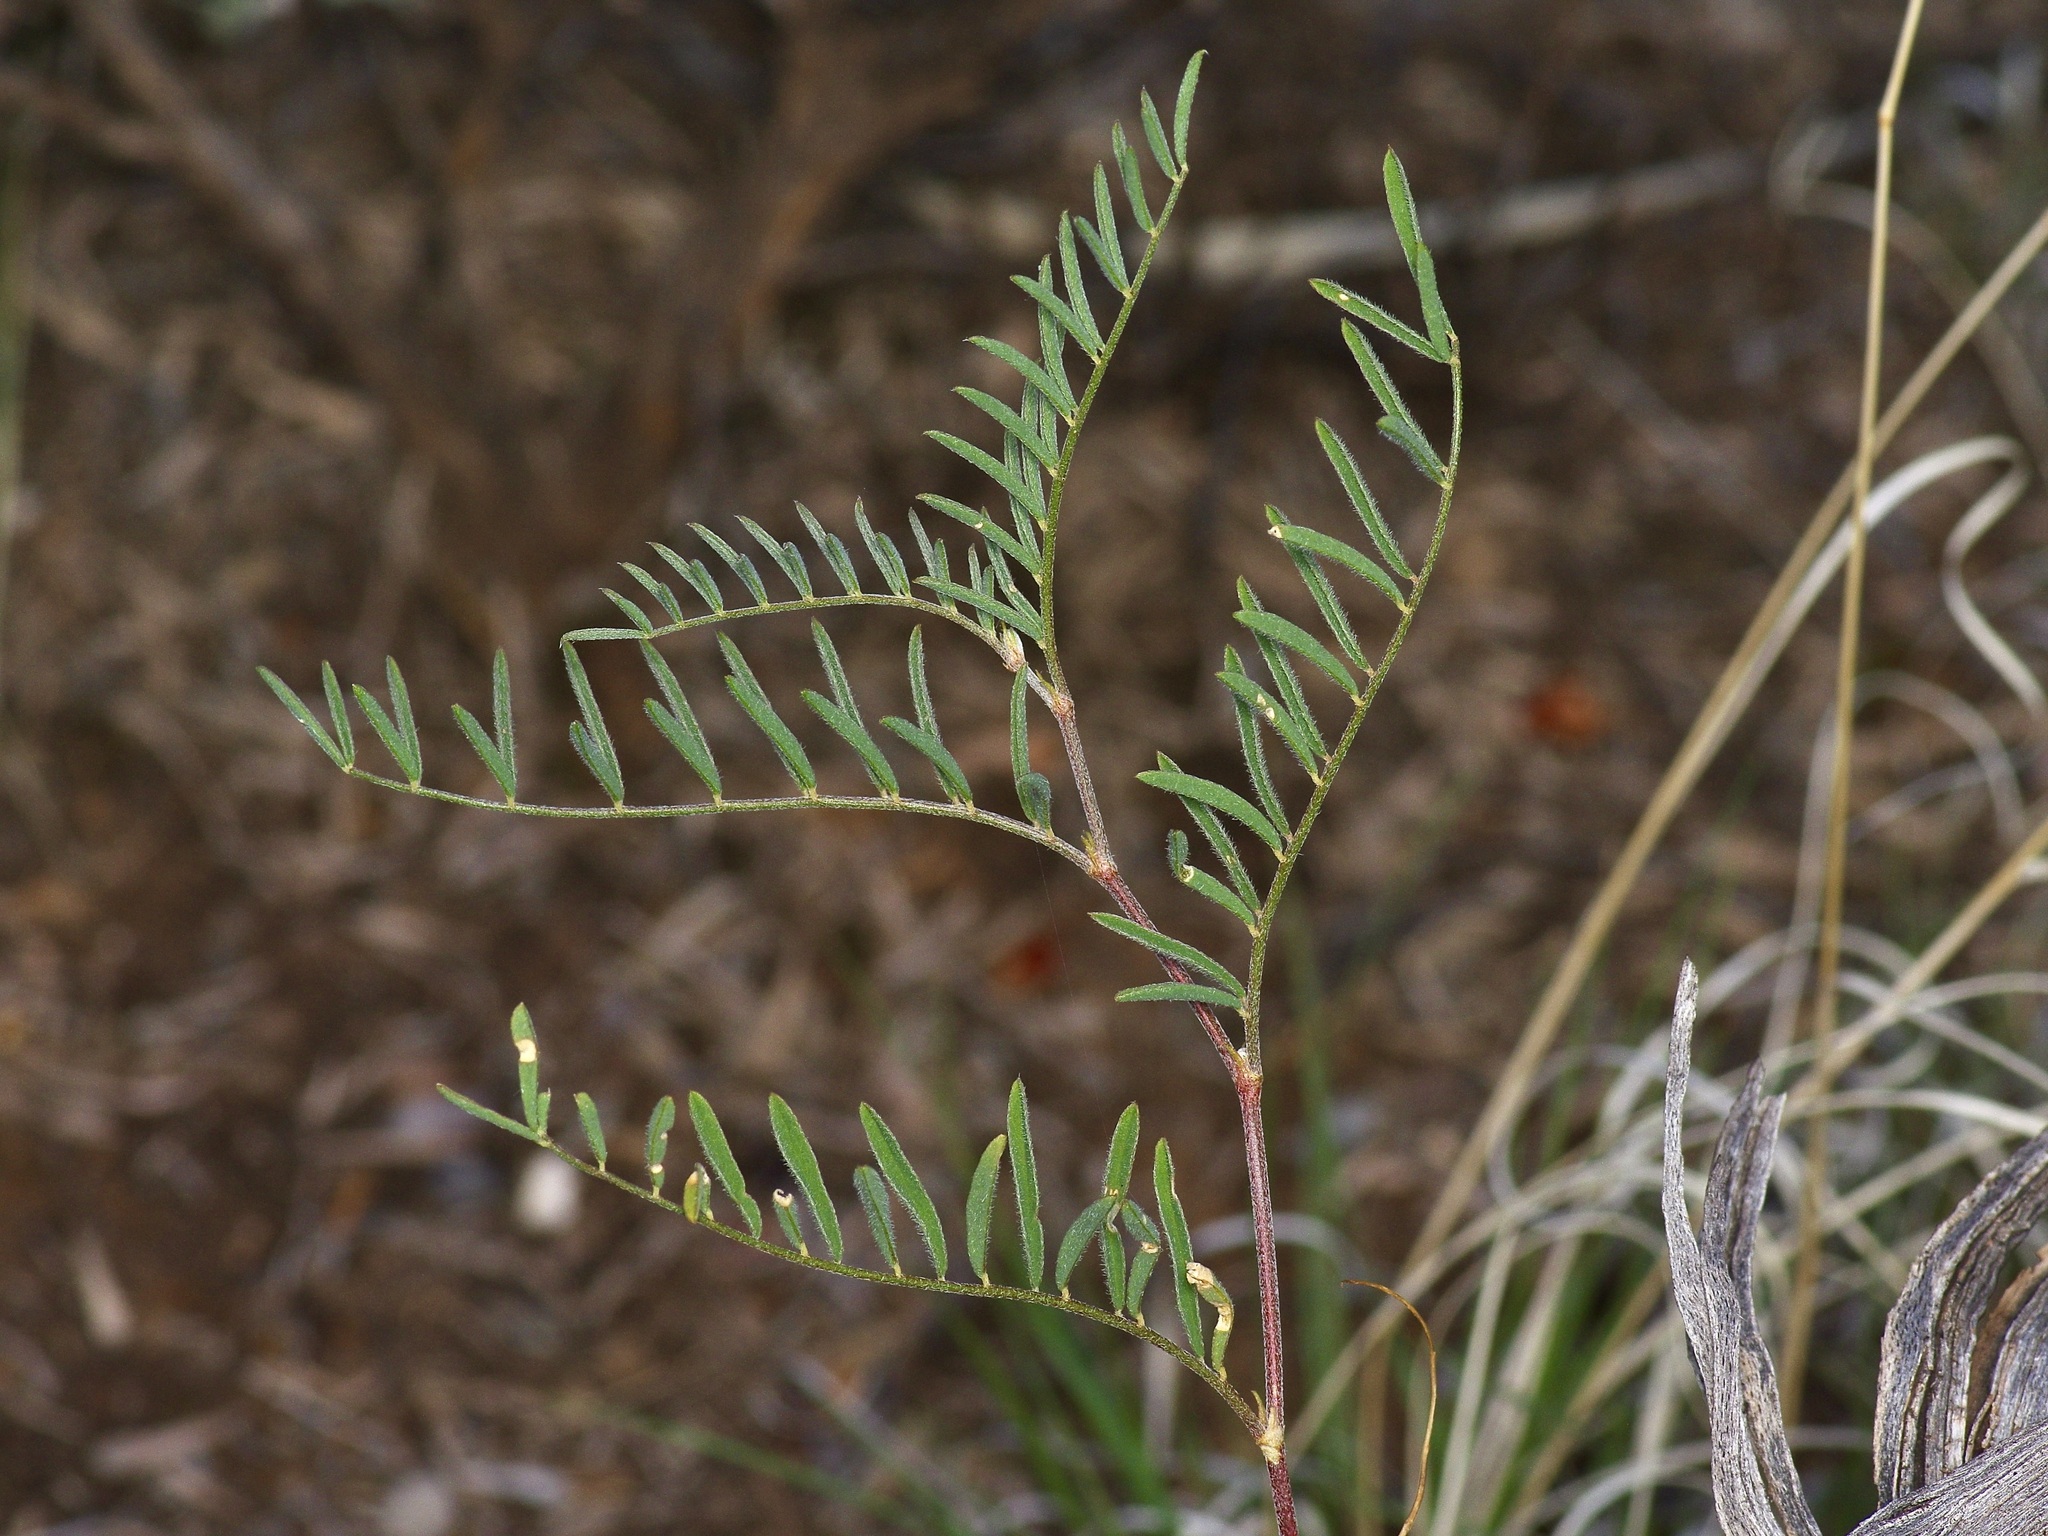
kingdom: Plantae
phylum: Tracheophyta
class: Magnoliopsida
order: Fabales
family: Fabaceae
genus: Astragalus
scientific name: Astragalus puniceus
